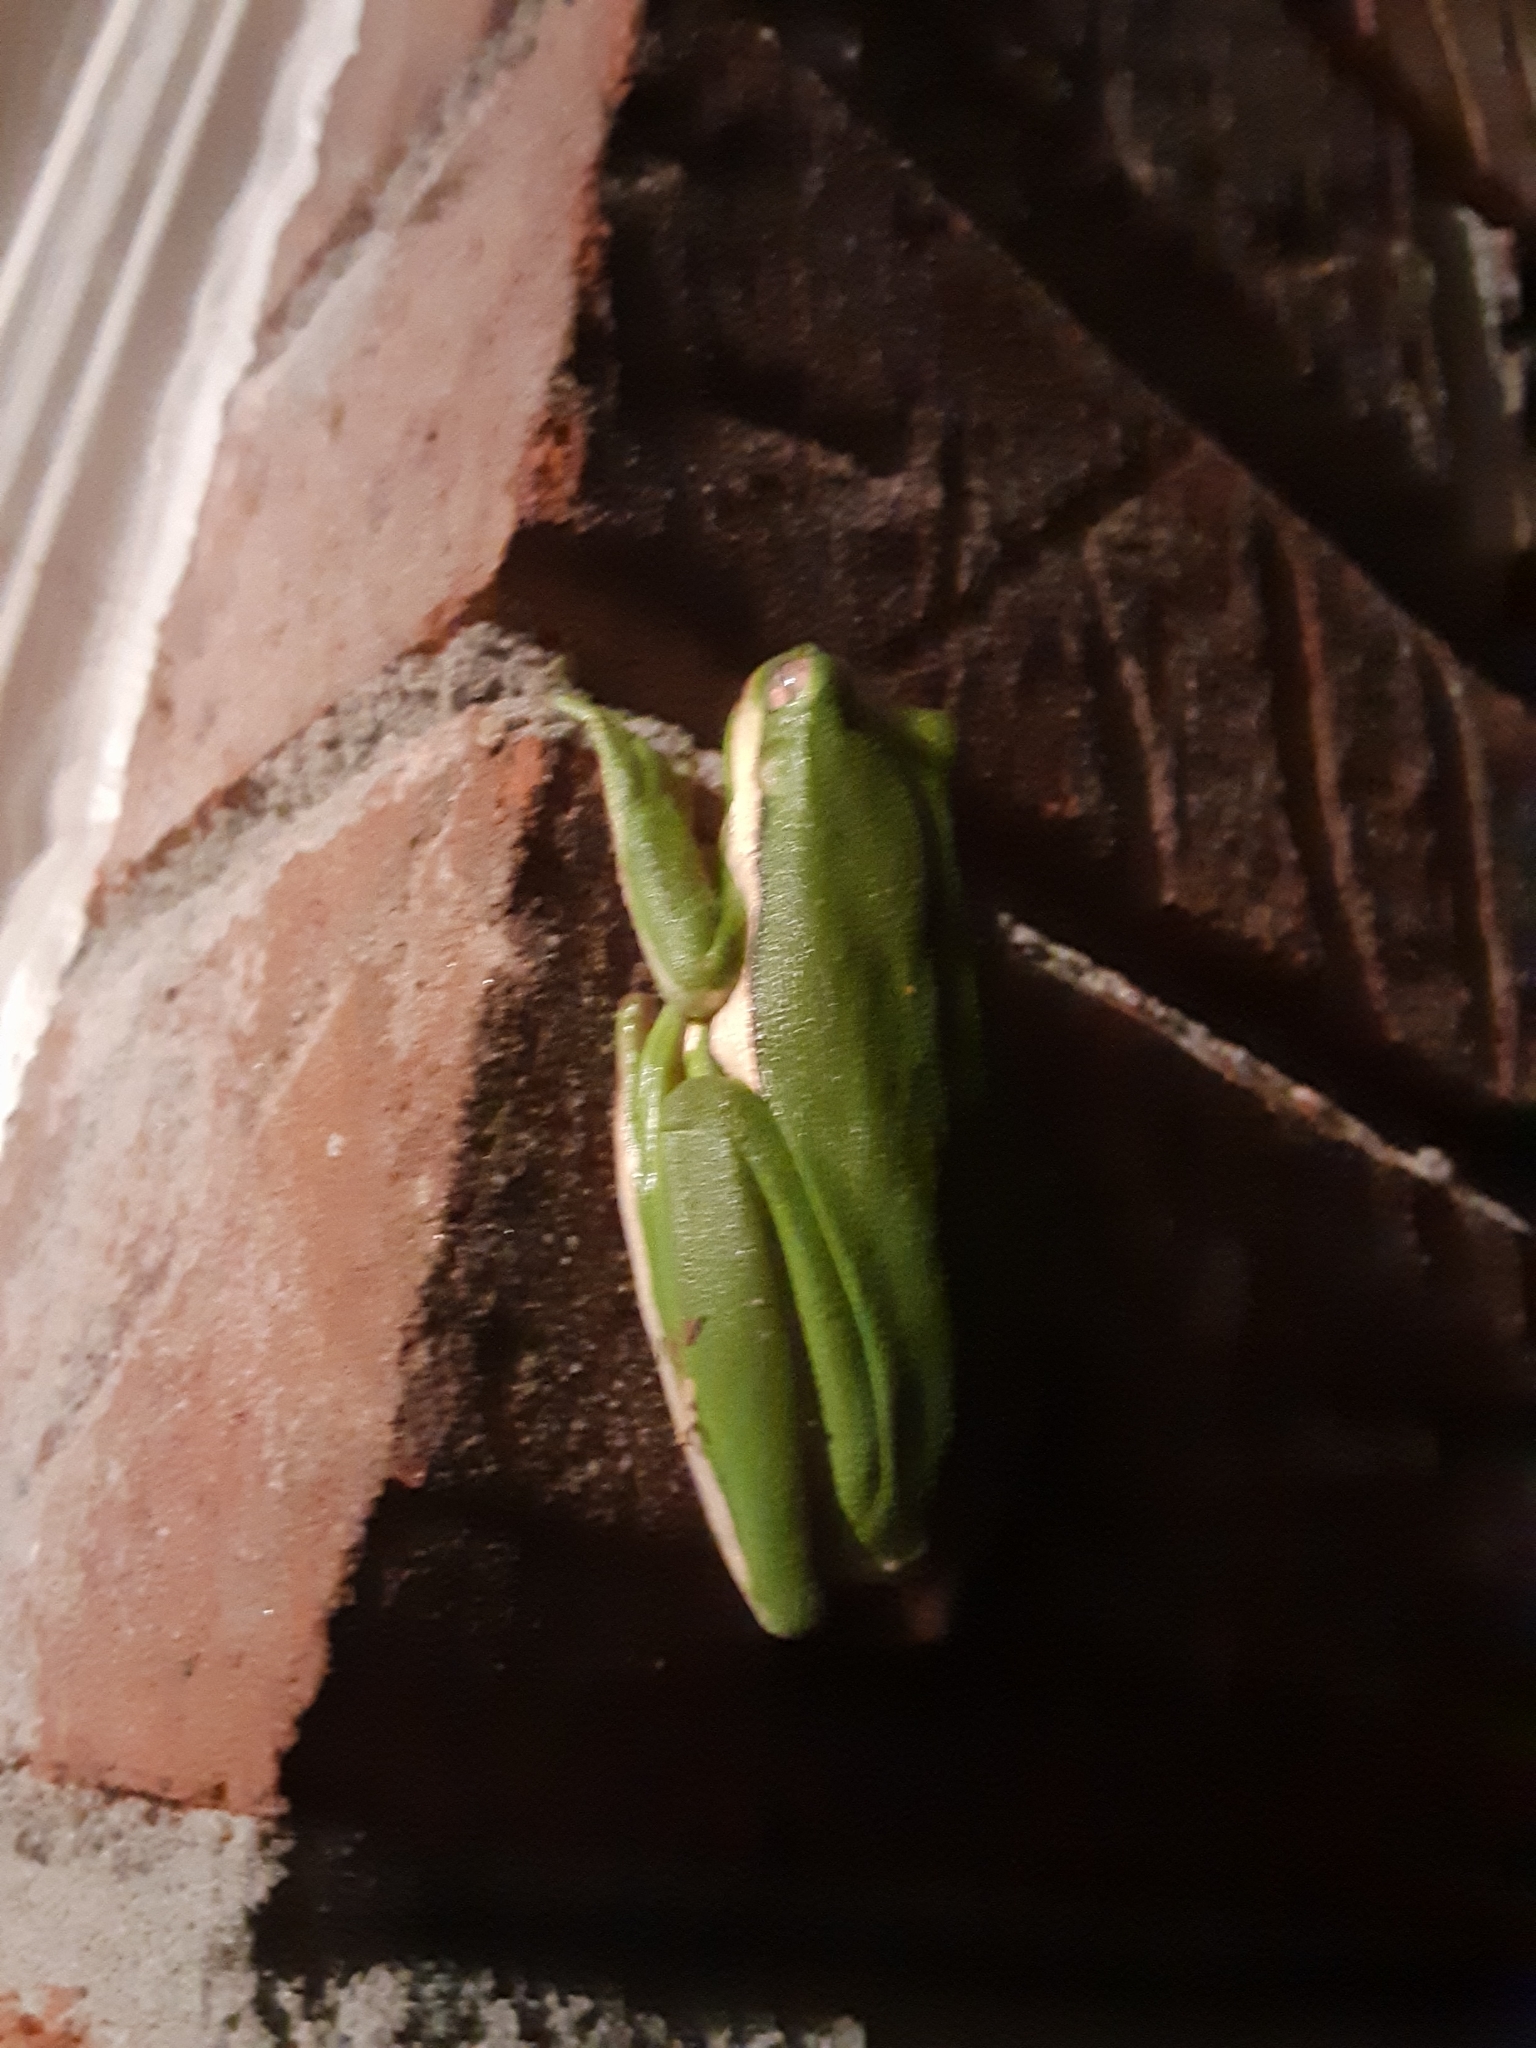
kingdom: Animalia
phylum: Chordata
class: Amphibia
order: Anura
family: Hylidae
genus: Dryophytes
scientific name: Dryophytes cinereus
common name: Green treefrog
